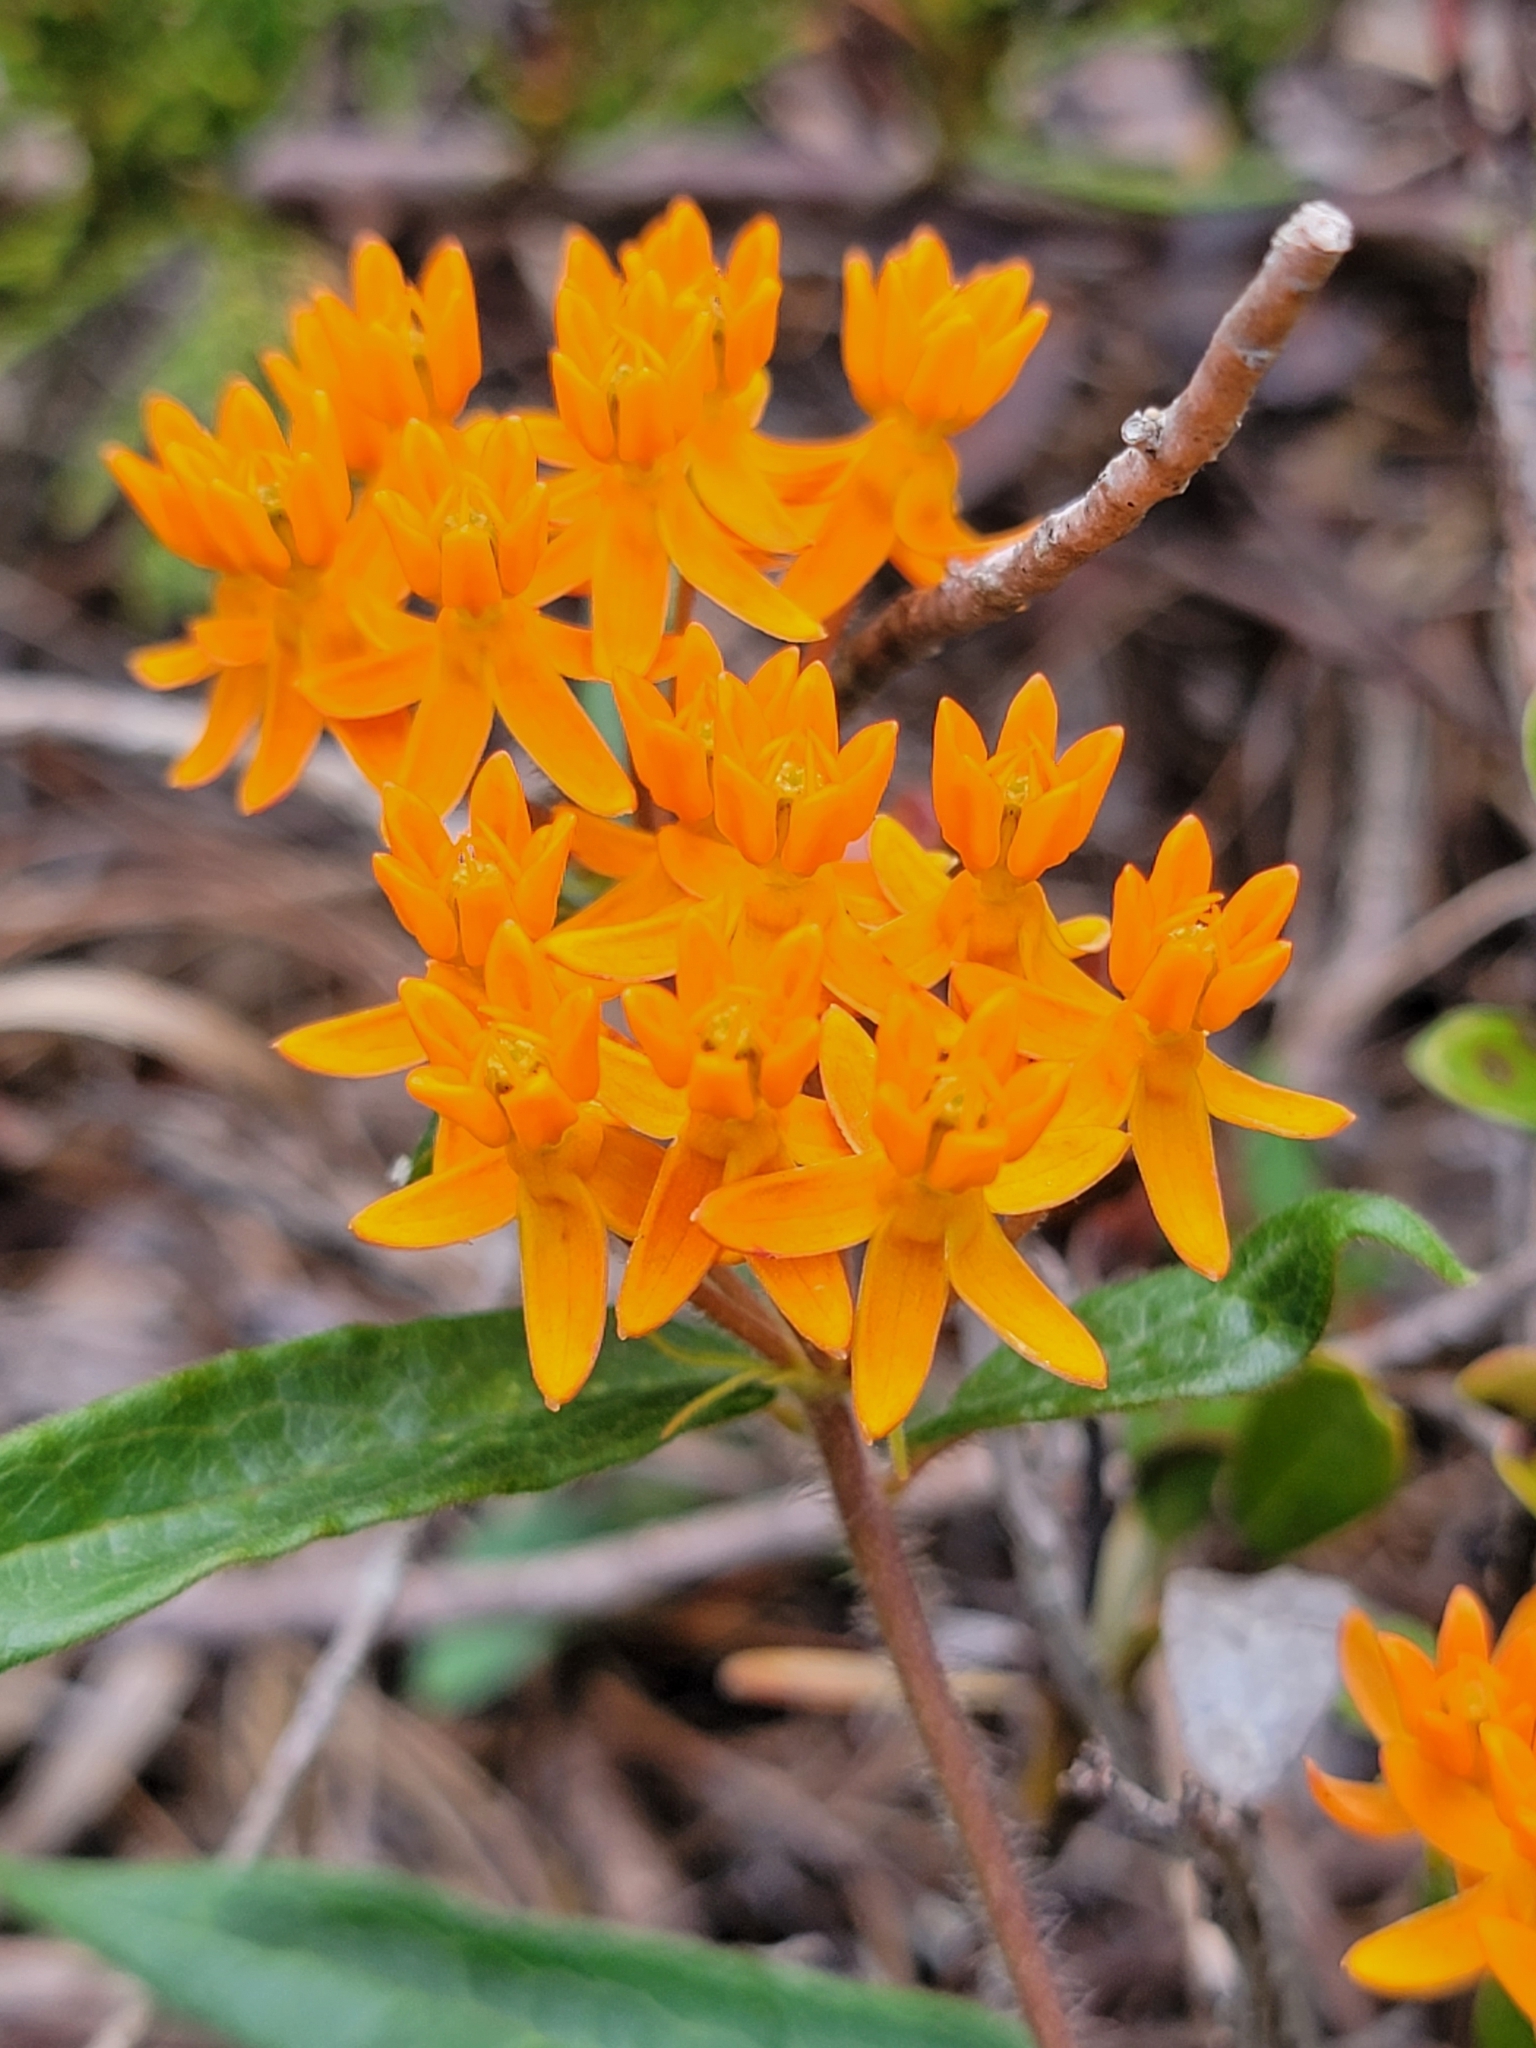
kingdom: Plantae
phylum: Tracheophyta
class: Magnoliopsida
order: Gentianales
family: Apocynaceae
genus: Asclepias
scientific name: Asclepias tuberosa
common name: Butterfly milkweed
